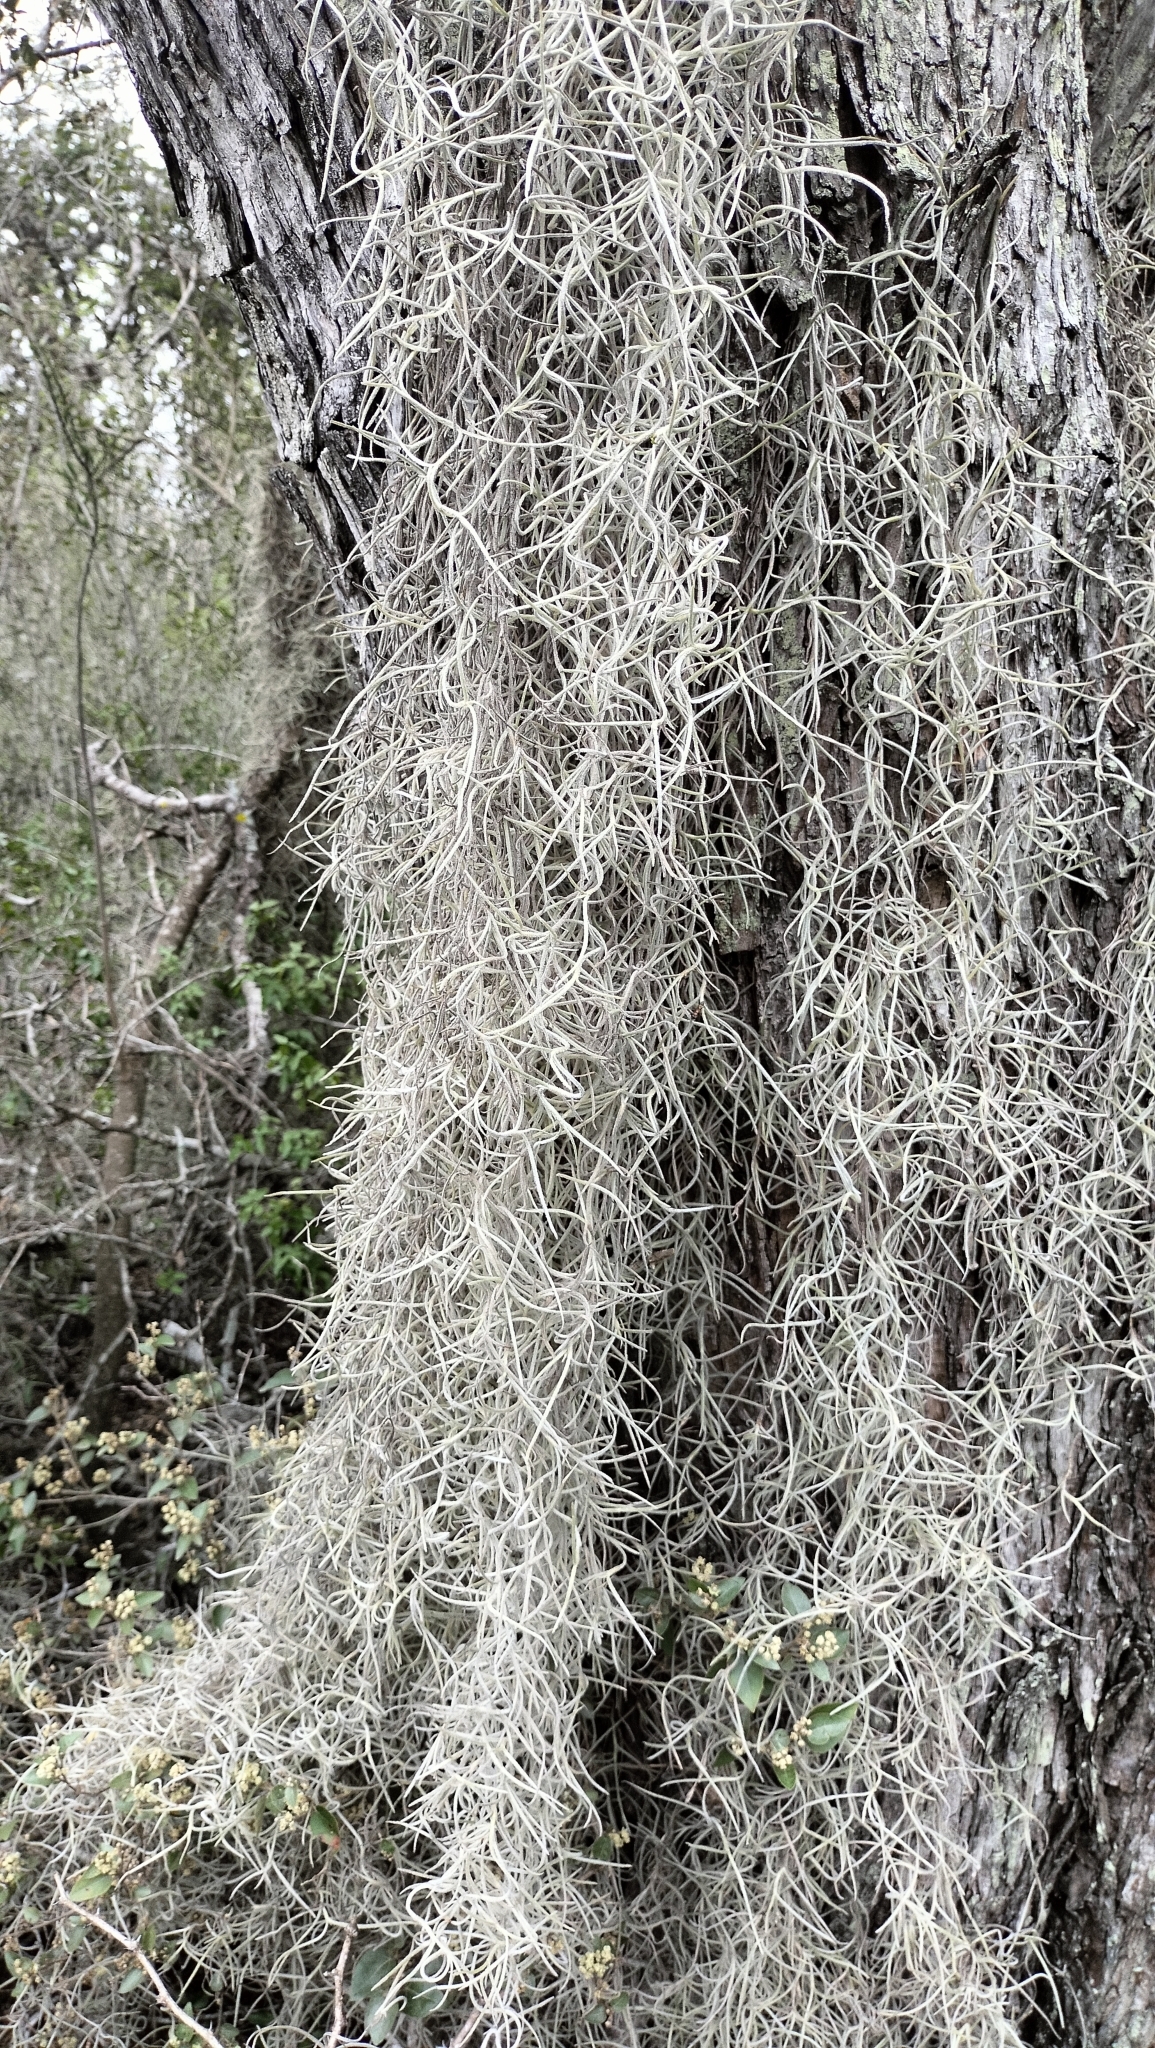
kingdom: Plantae
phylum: Tracheophyta
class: Liliopsida
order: Poales
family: Bromeliaceae
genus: Tillandsia
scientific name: Tillandsia usneoides
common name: Spanish moss
